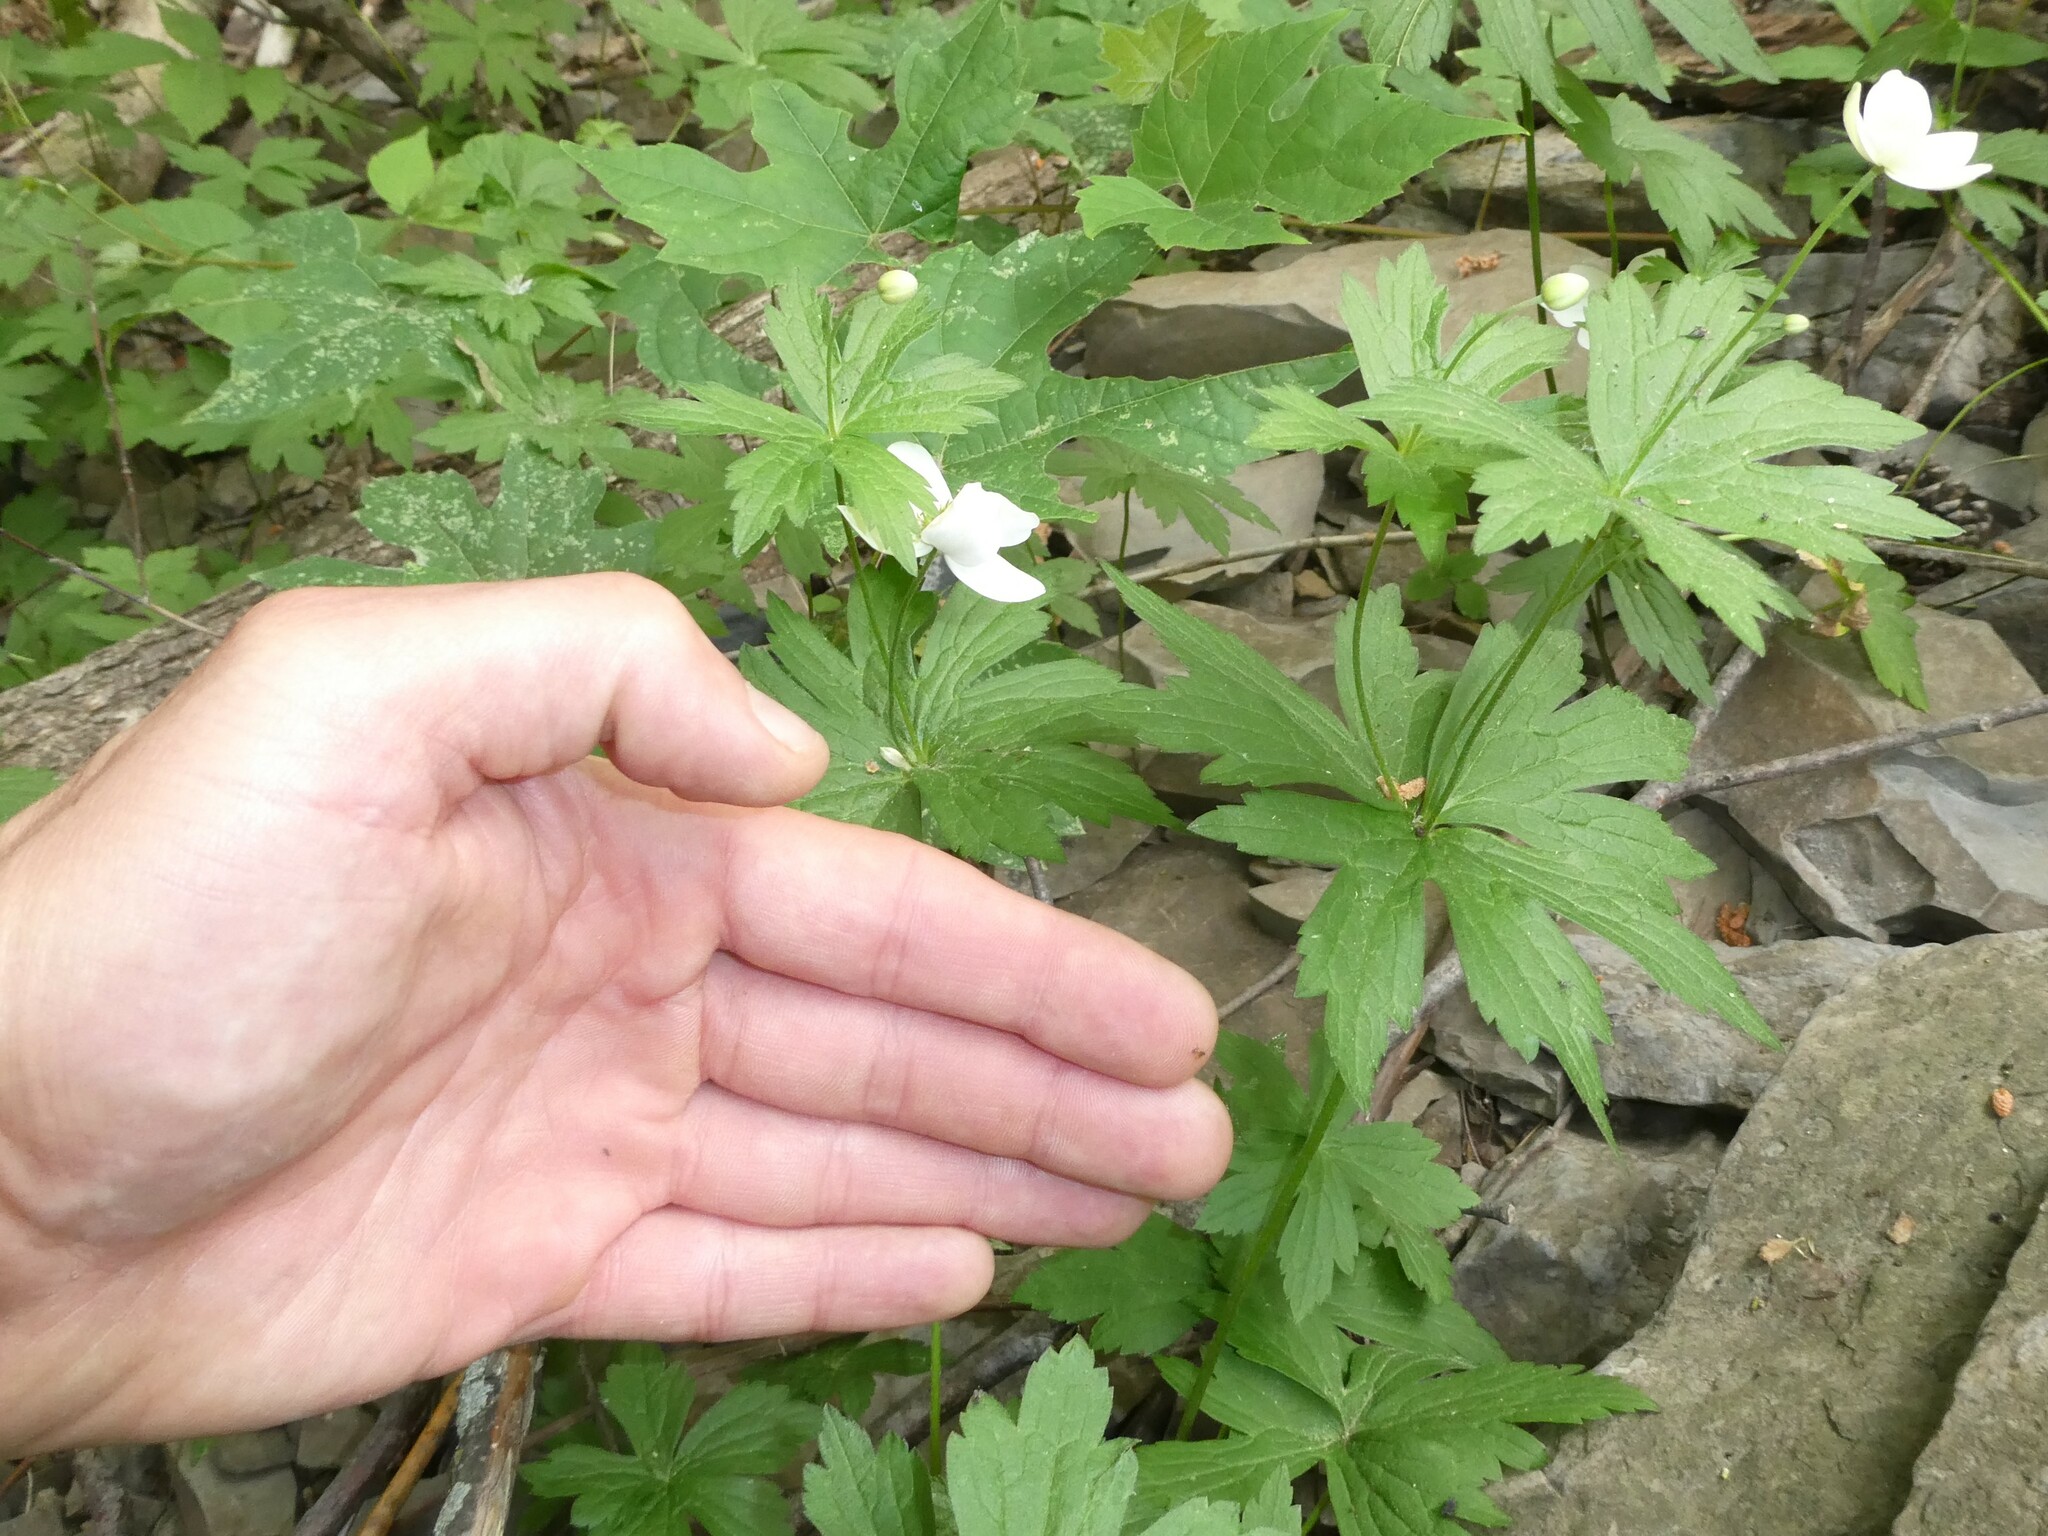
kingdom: Plantae
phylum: Tracheophyta
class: Magnoliopsida
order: Ranunculales
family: Ranunculaceae
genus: Anemonastrum
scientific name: Anemonastrum canadense
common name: Canada anemone
